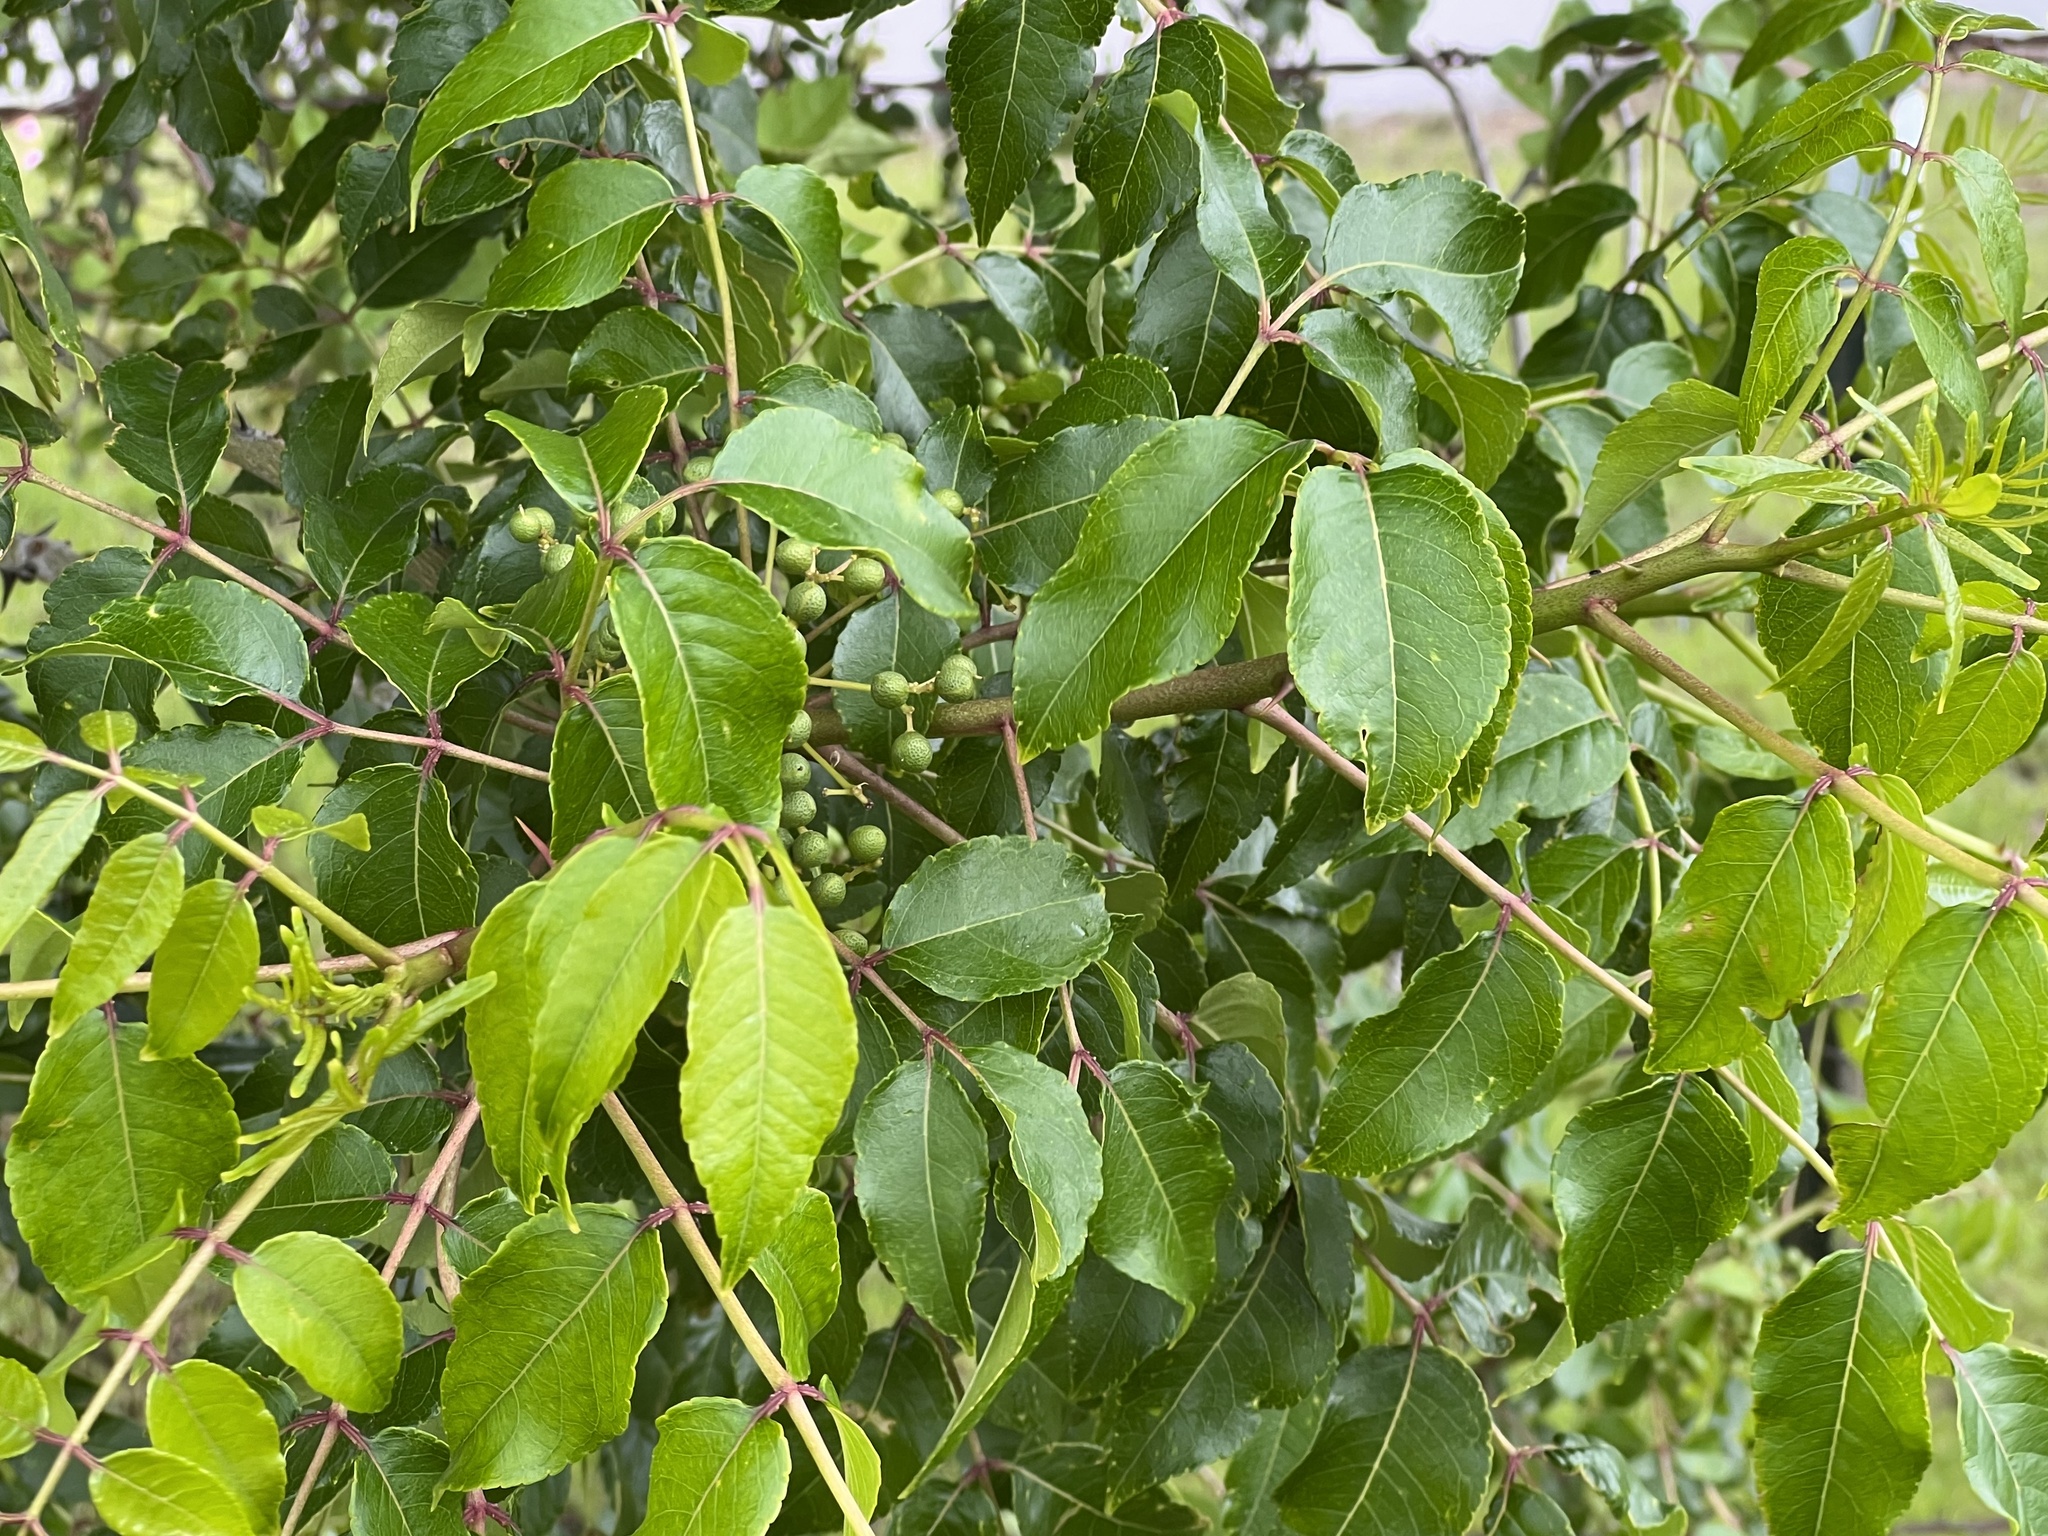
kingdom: Plantae
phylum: Tracheophyta
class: Magnoliopsida
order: Sapindales
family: Rutaceae
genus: Zanthoxylum
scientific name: Zanthoxylum clava-herculis
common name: Hercules'-club
